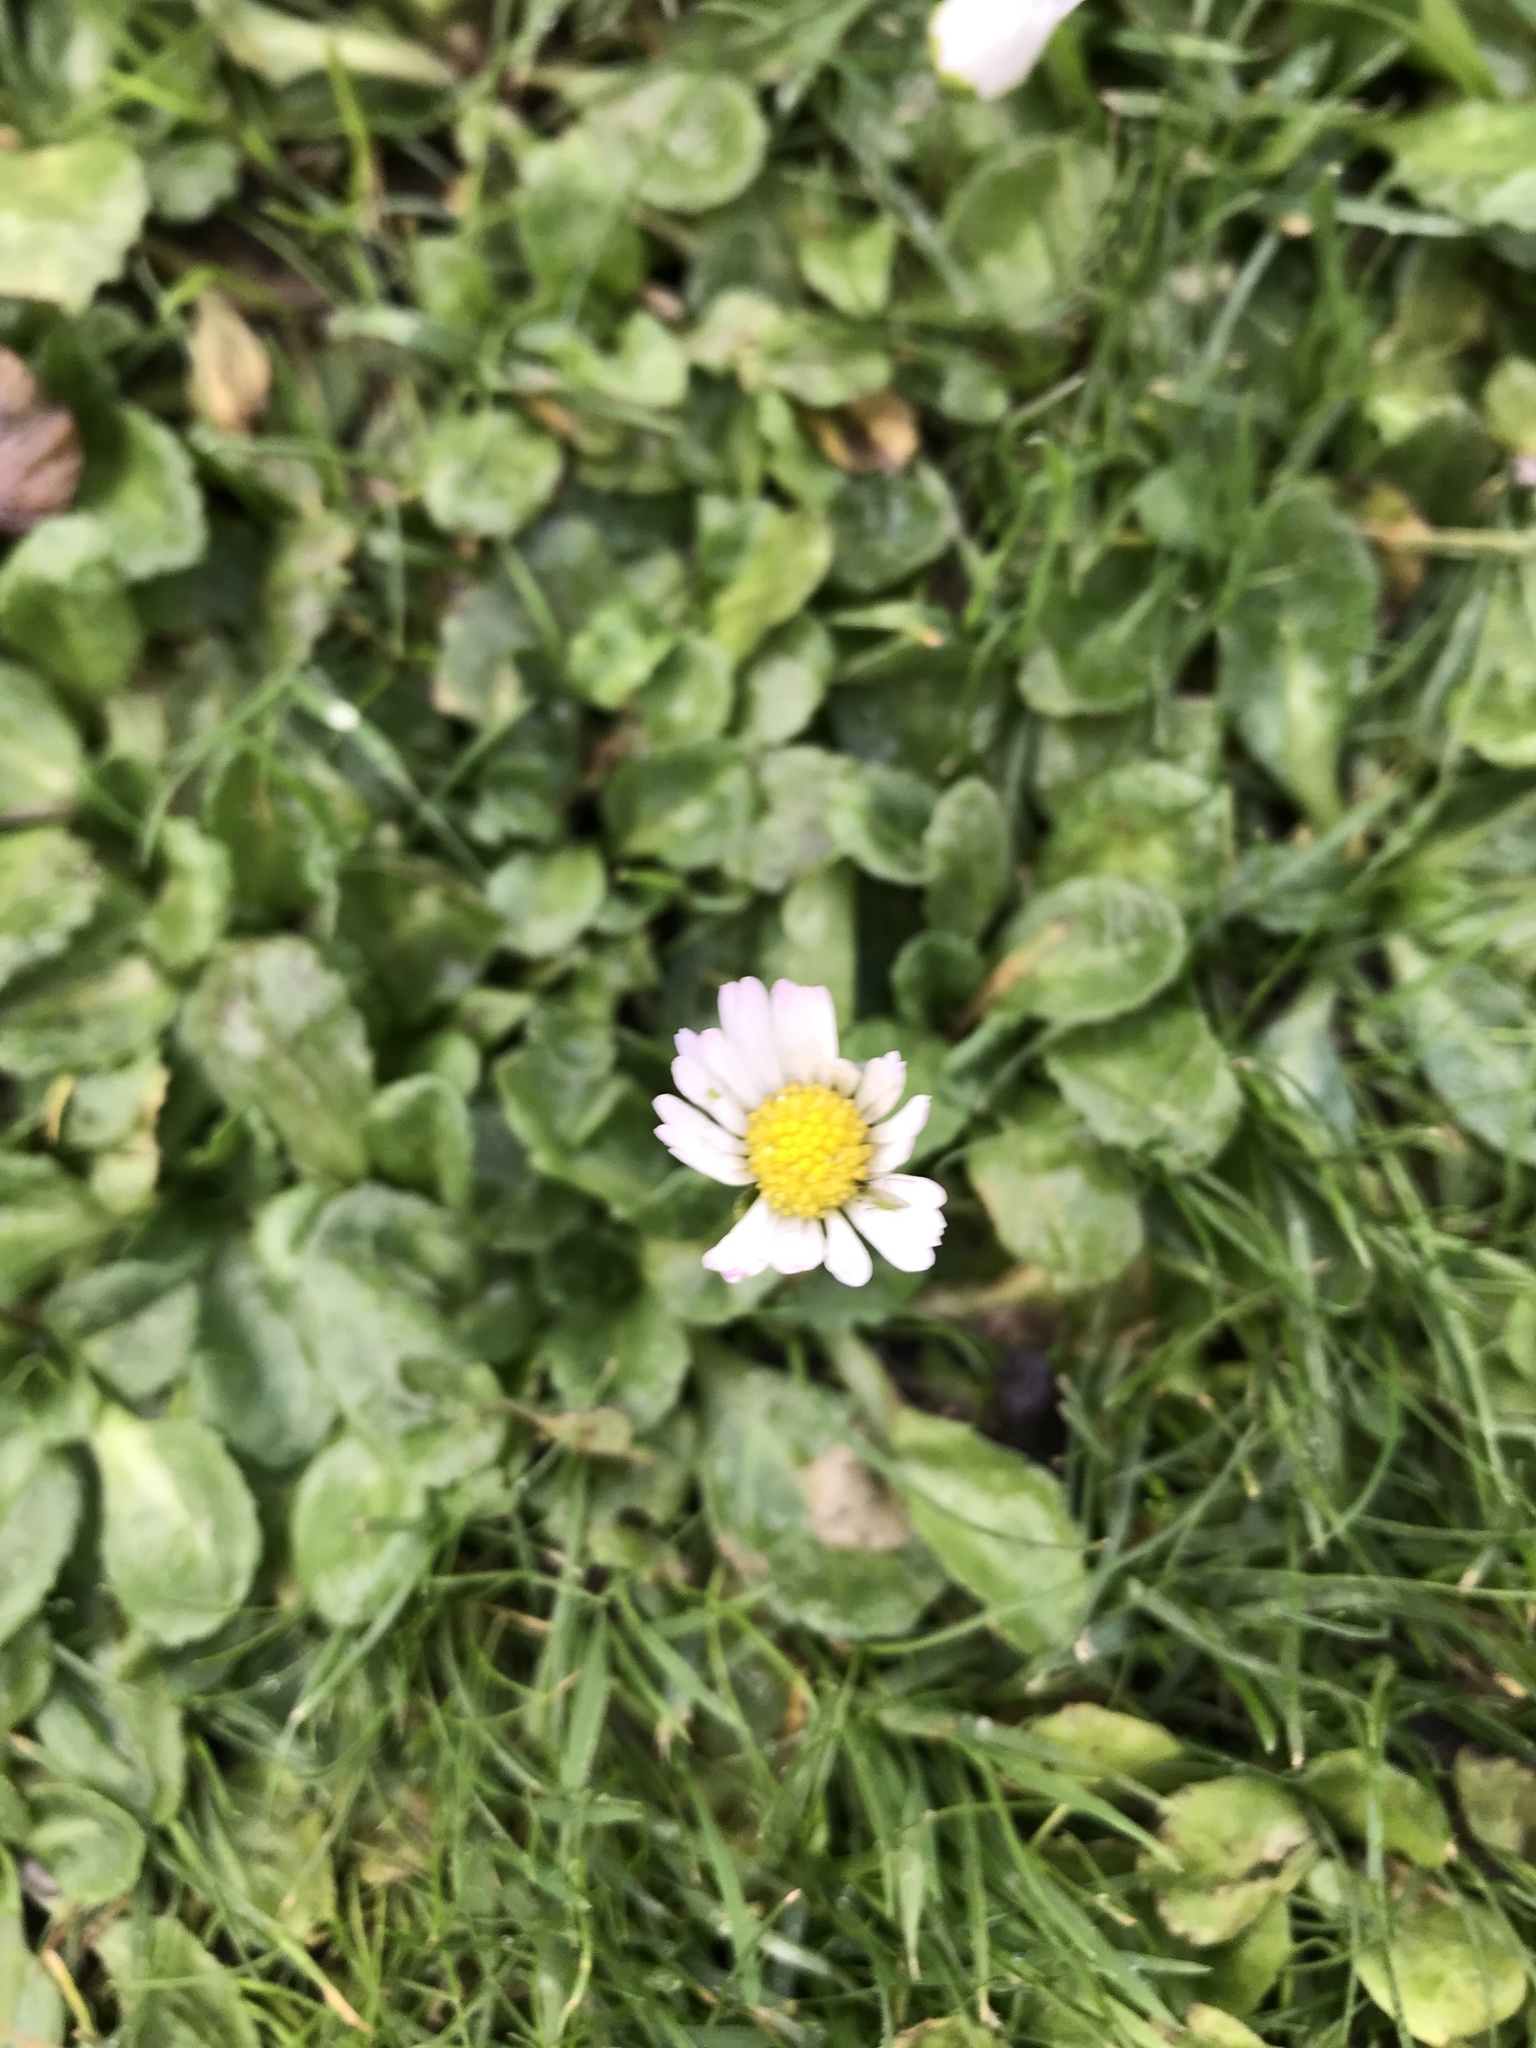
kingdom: Plantae
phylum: Tracheophyta
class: Magnoliopsida
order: Asterales
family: Asteraceae
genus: Bellis
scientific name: Bellis perennis
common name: Lawndaisy
